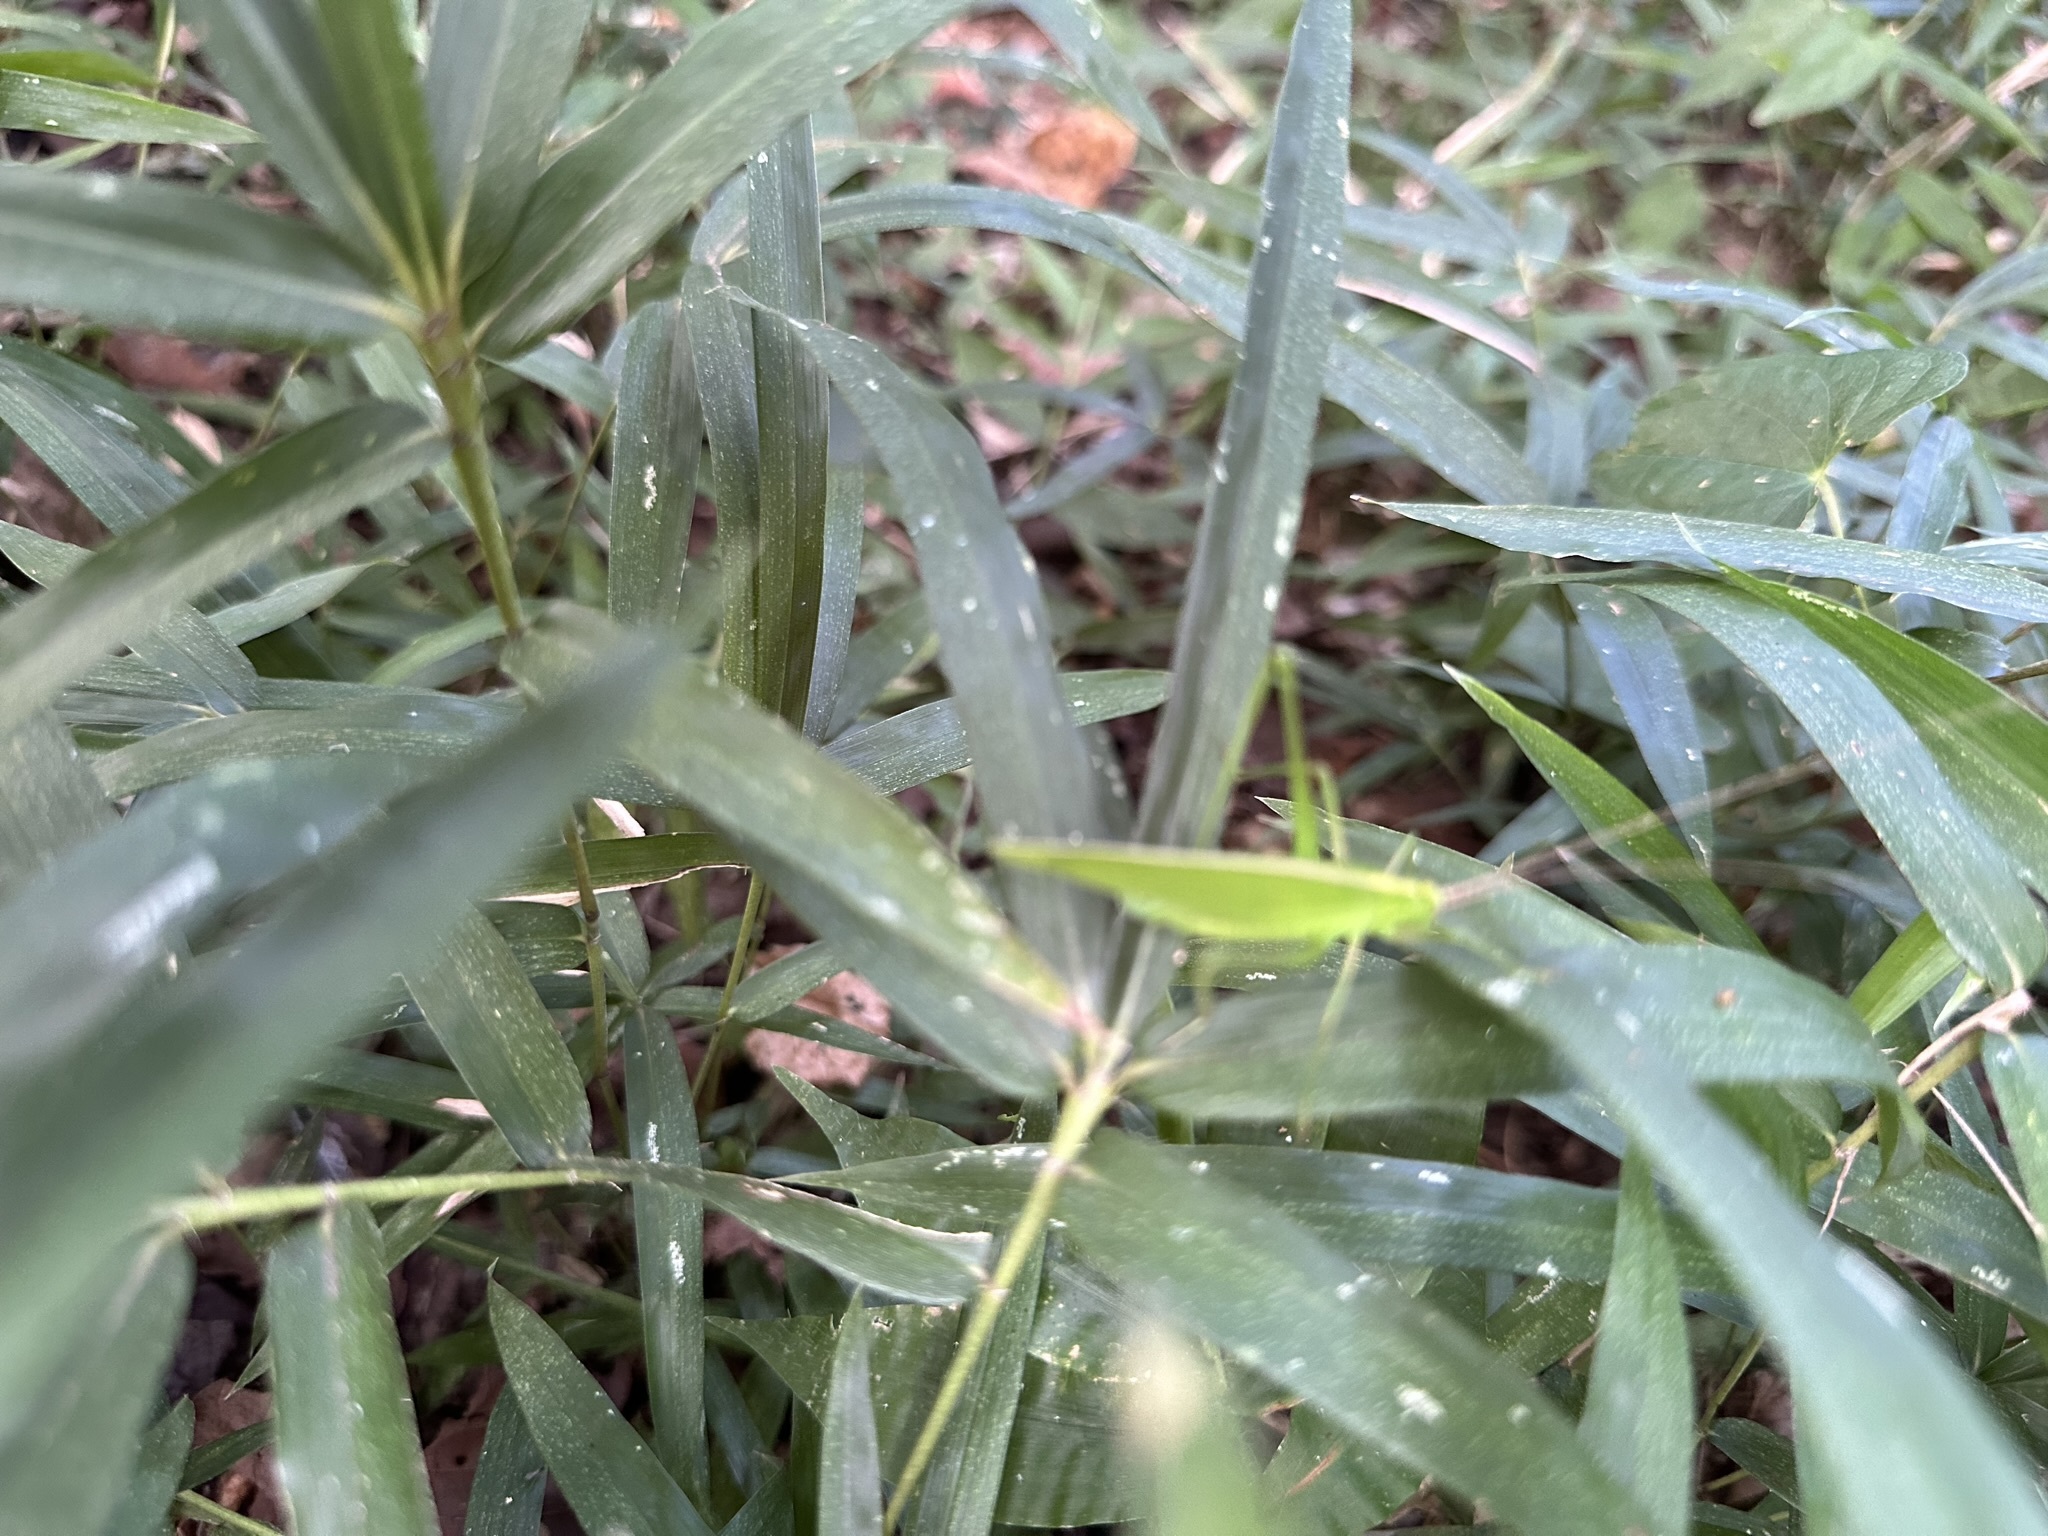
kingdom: Animalia
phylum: Arthropoda
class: Insecta
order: Orthoptera
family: Tettigoniidae
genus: Ducetia
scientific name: Ducetia japonica
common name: Pacific ducetia
